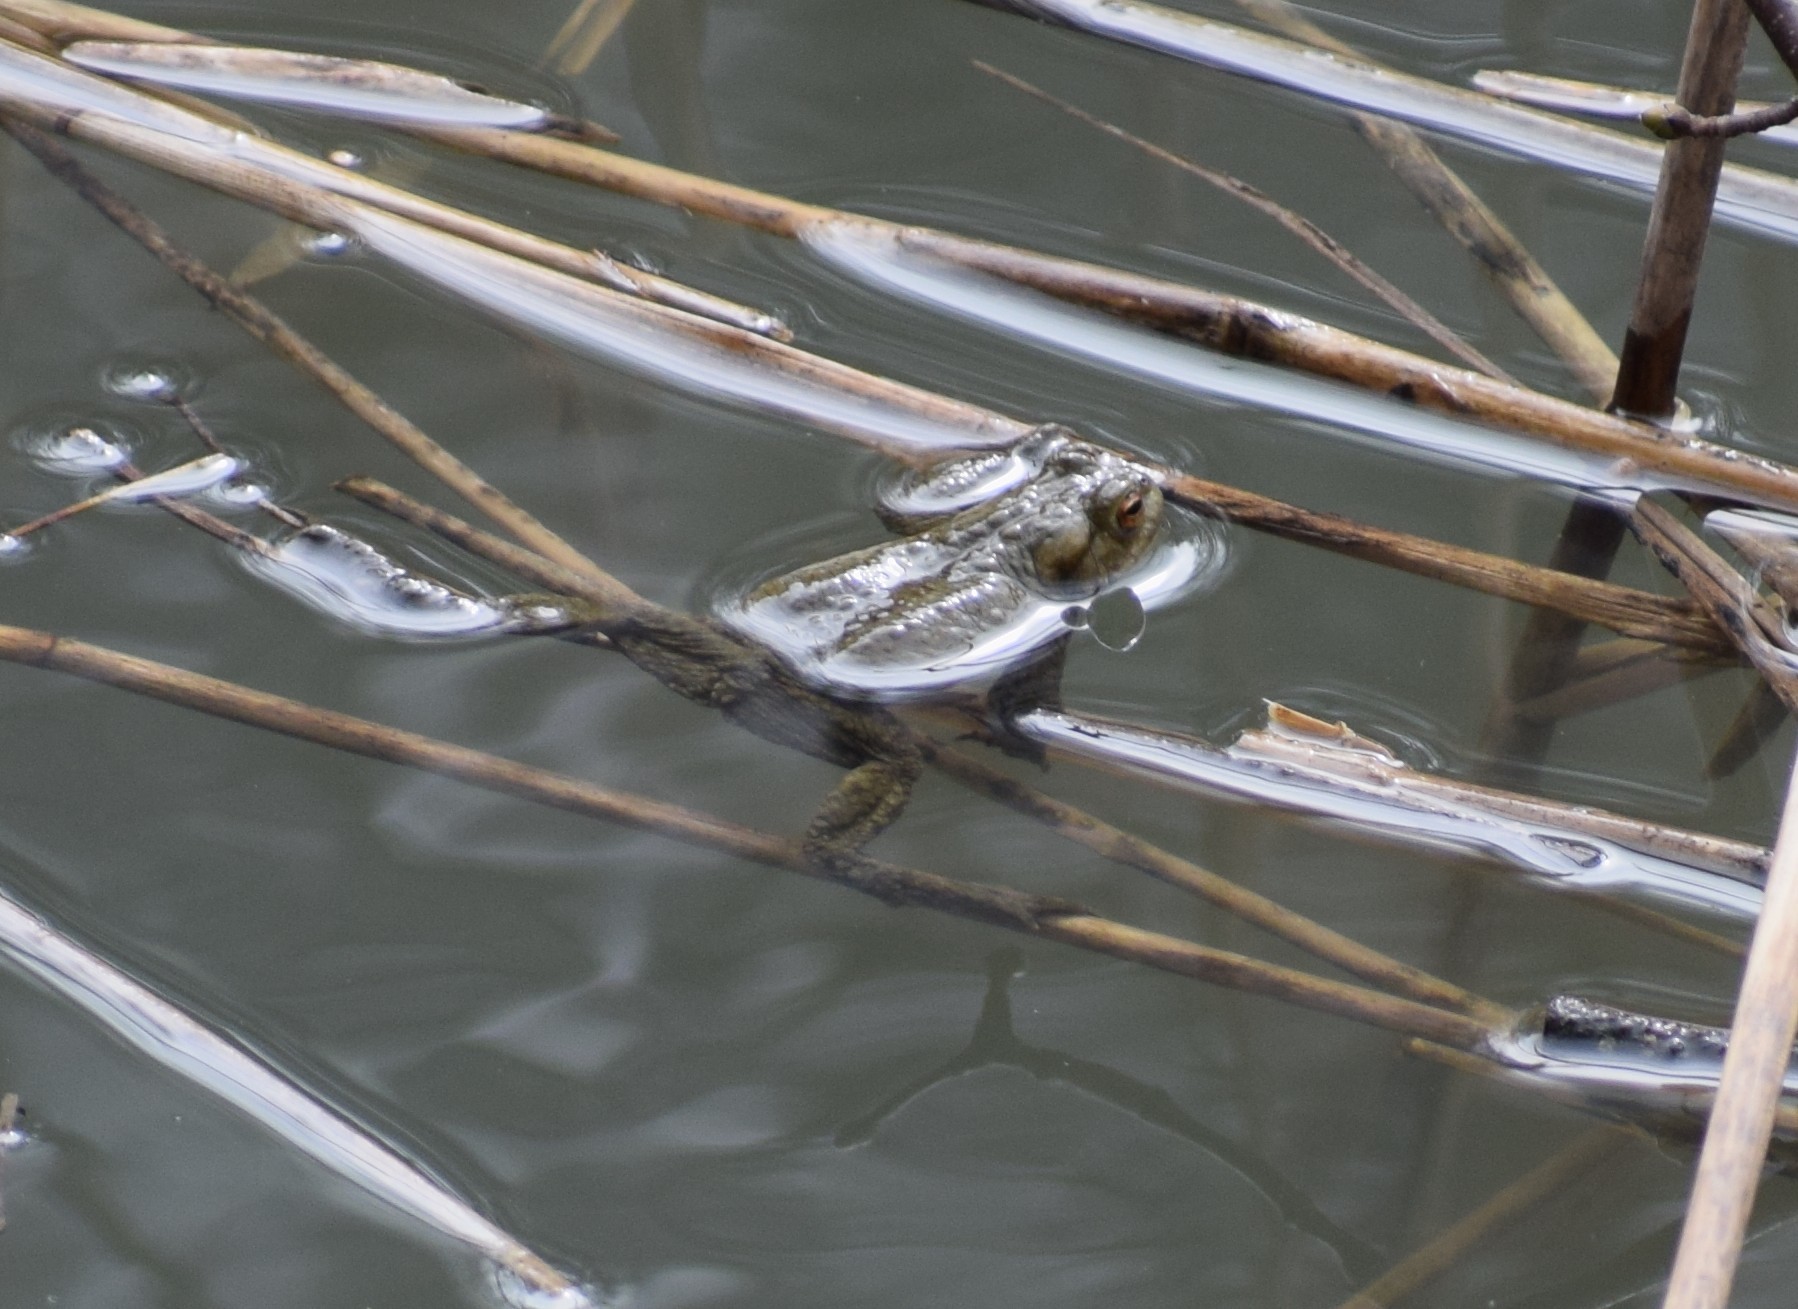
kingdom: Animalia
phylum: Chordata
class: Amphibia
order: Anura
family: Bufonidae
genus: Bufo
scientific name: Bufo bufo
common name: Common toad
